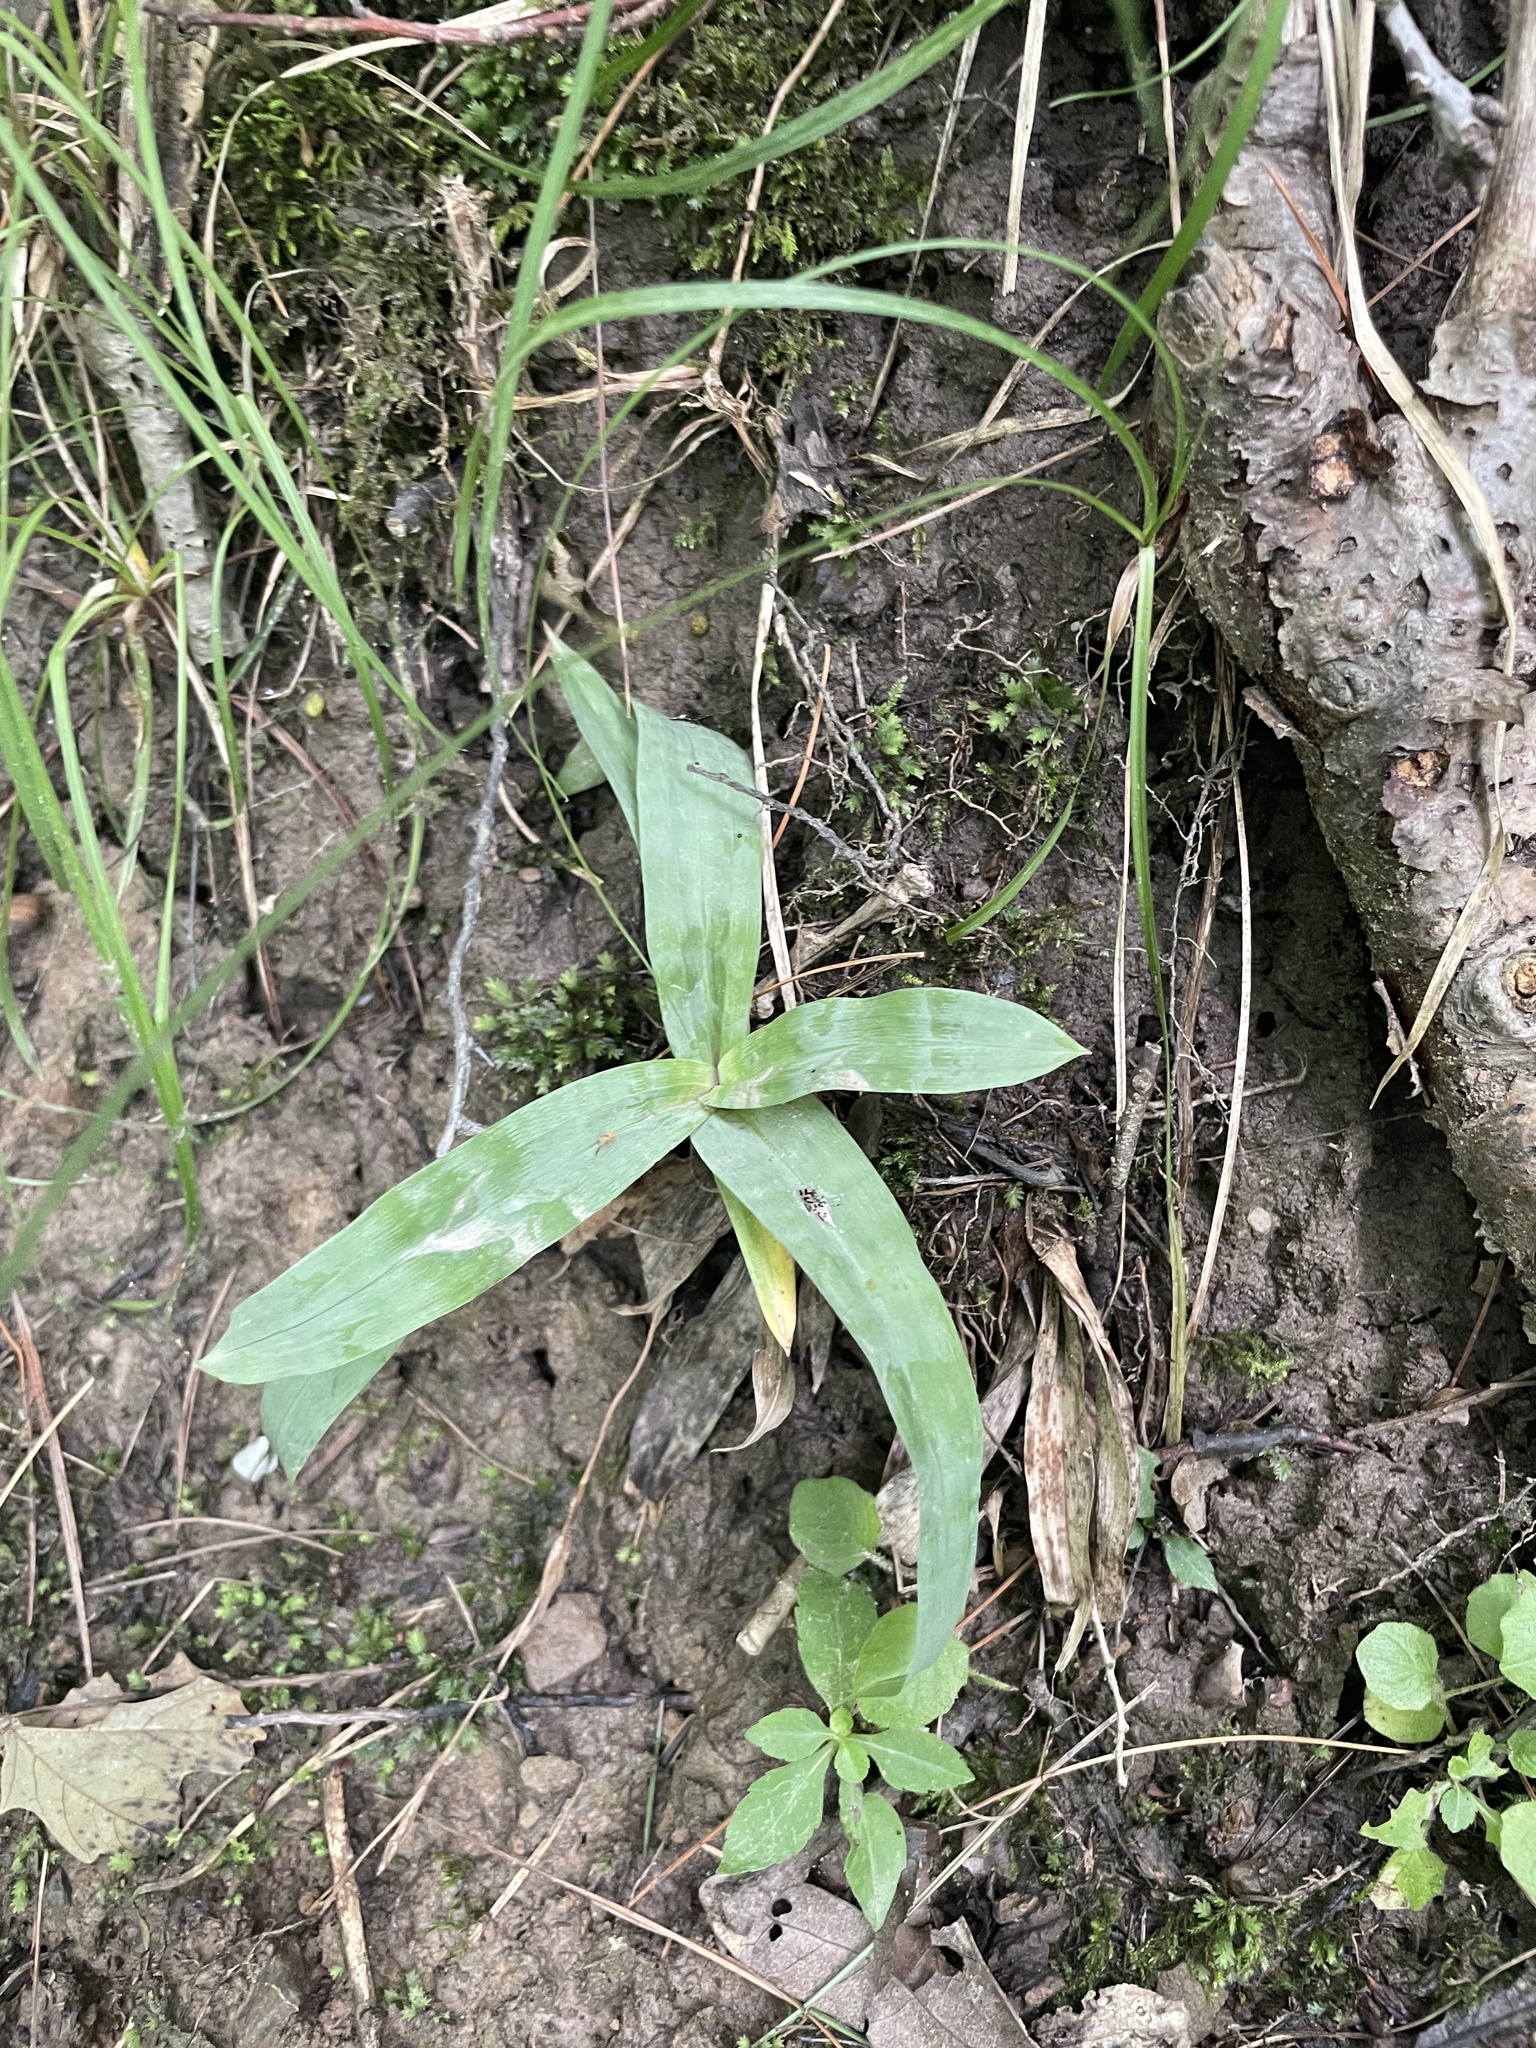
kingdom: Plantae
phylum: Tracheophyta
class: Liliopsida
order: Poales
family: Cyperaceae
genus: Carex
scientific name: Carex platyphylla
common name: Broad-leaved sedge
